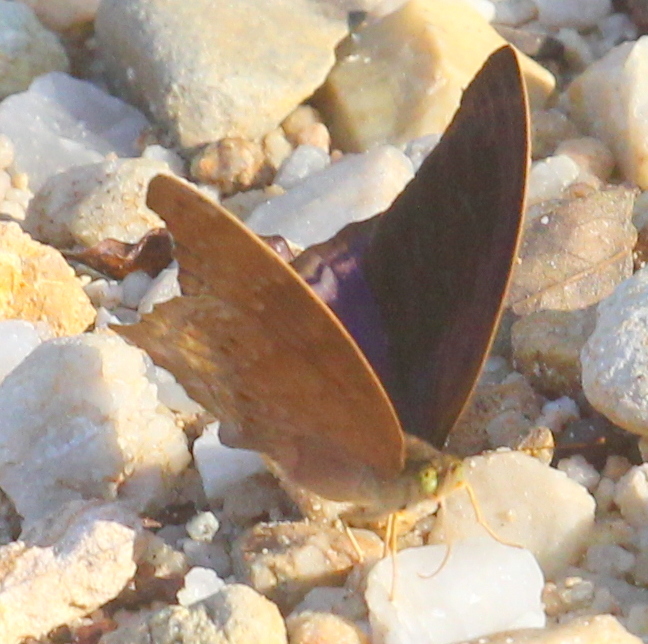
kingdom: Animalia
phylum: Arthropoda
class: Insecta
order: Lepidoptera
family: Nymphalidae
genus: Terinos
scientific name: Terinos atlita
